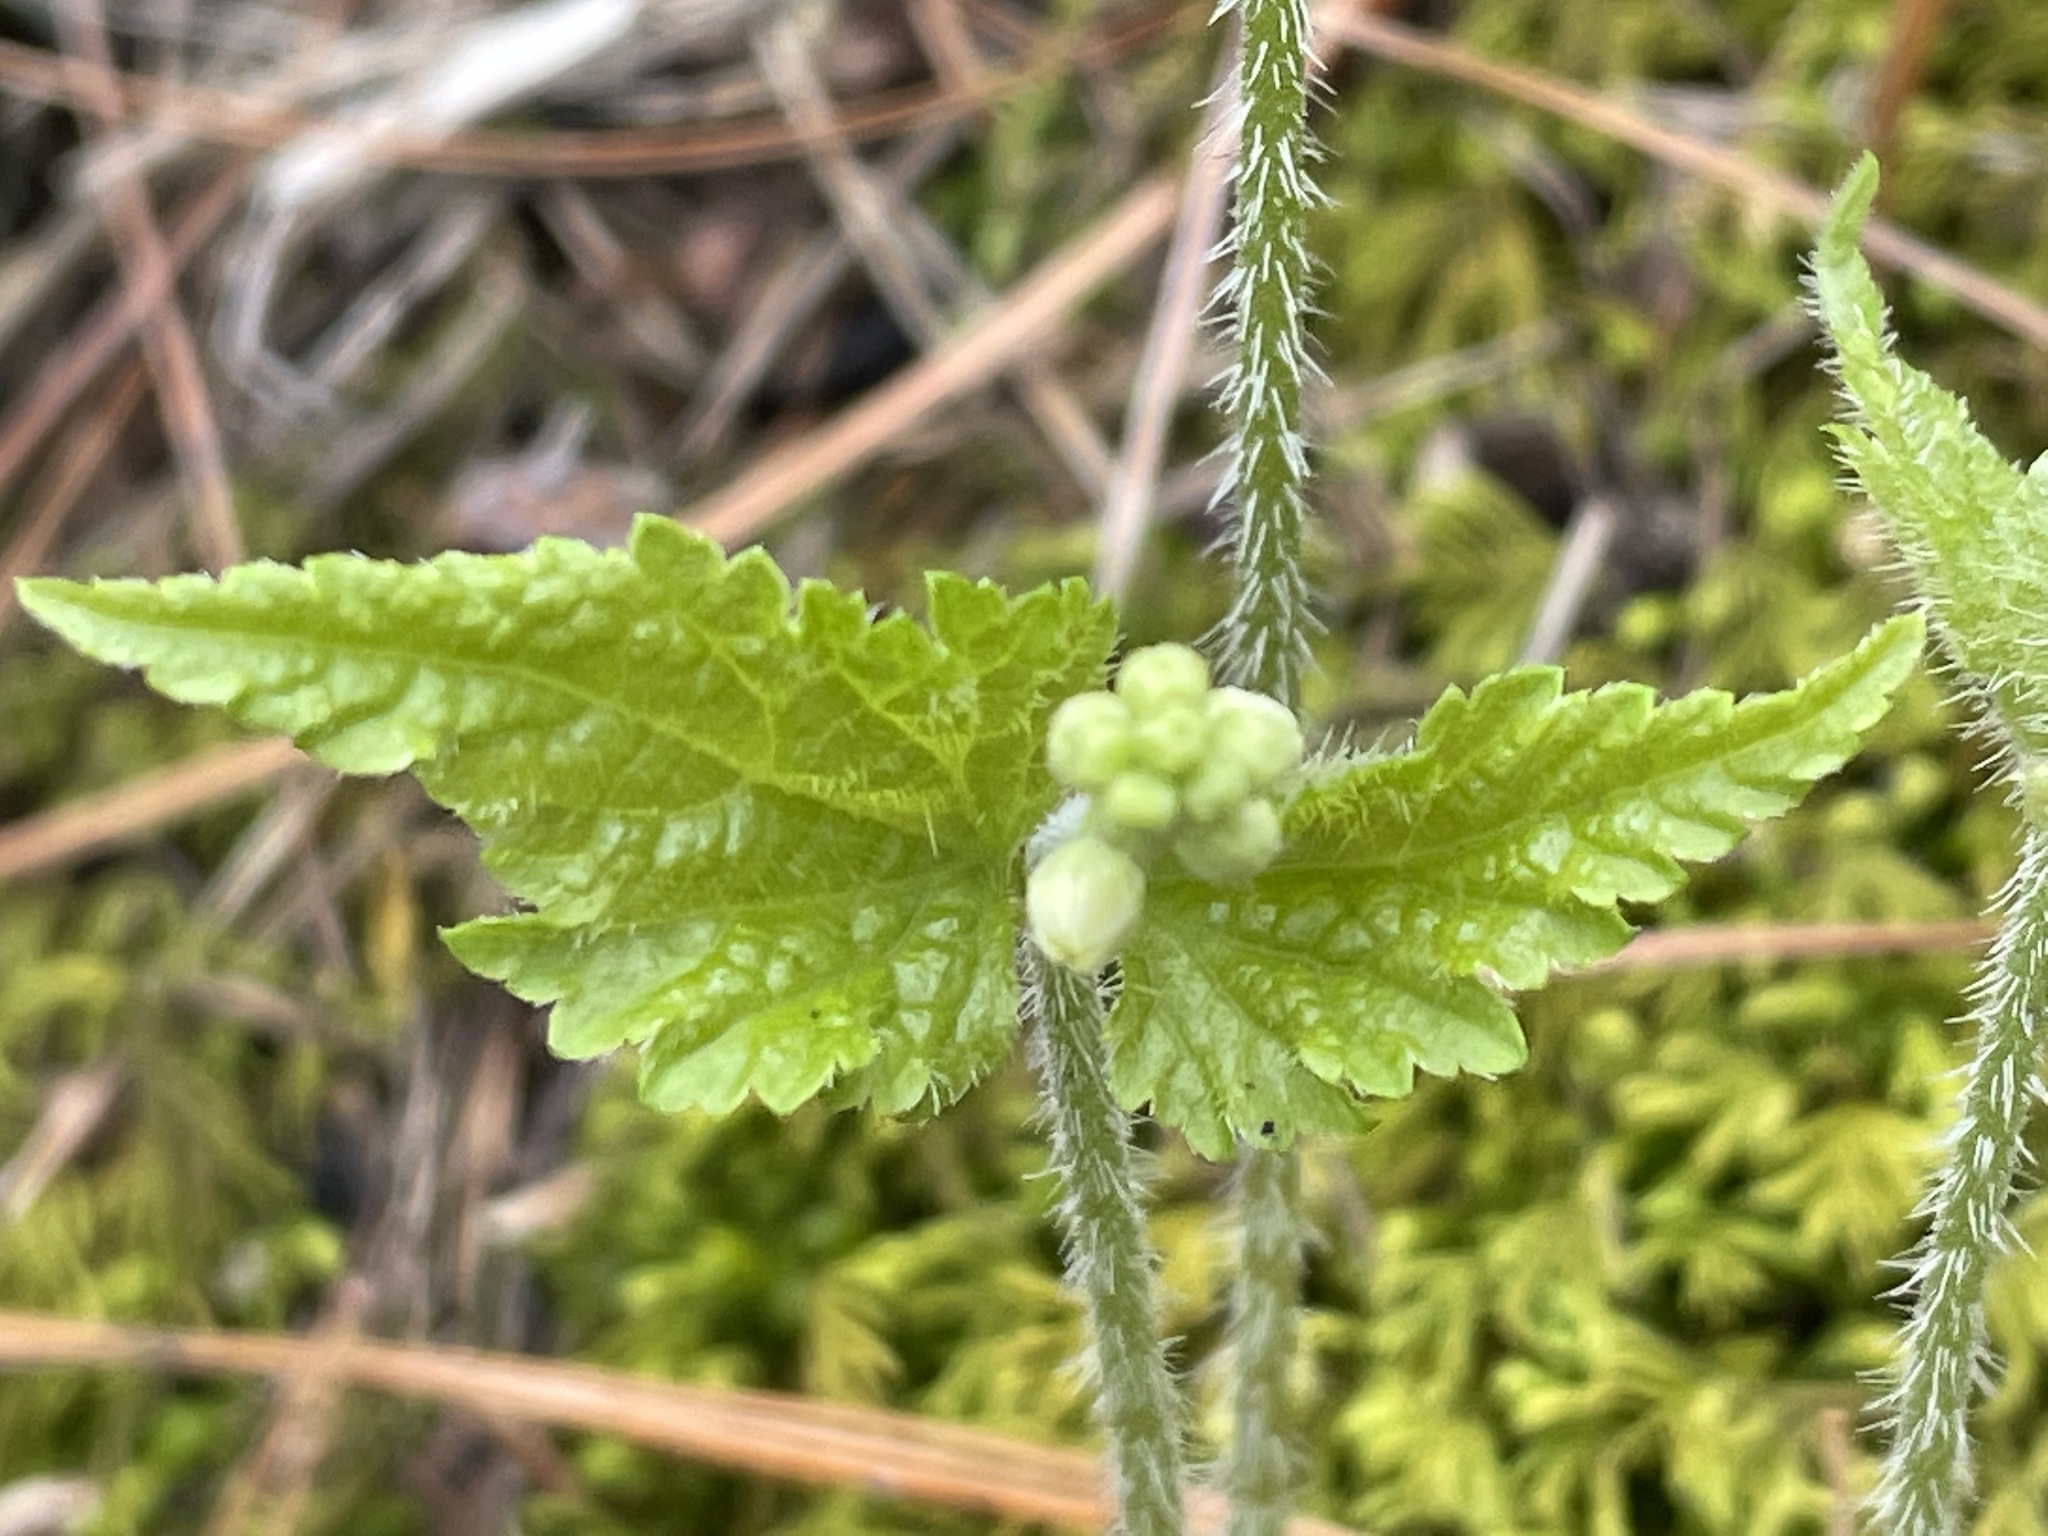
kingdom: Plantae
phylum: Tracheophyta
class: Magnoliopsida
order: Saxifragales
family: Saxifragaceae
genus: Mitella
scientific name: Mitella diphylla
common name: Coolwort
